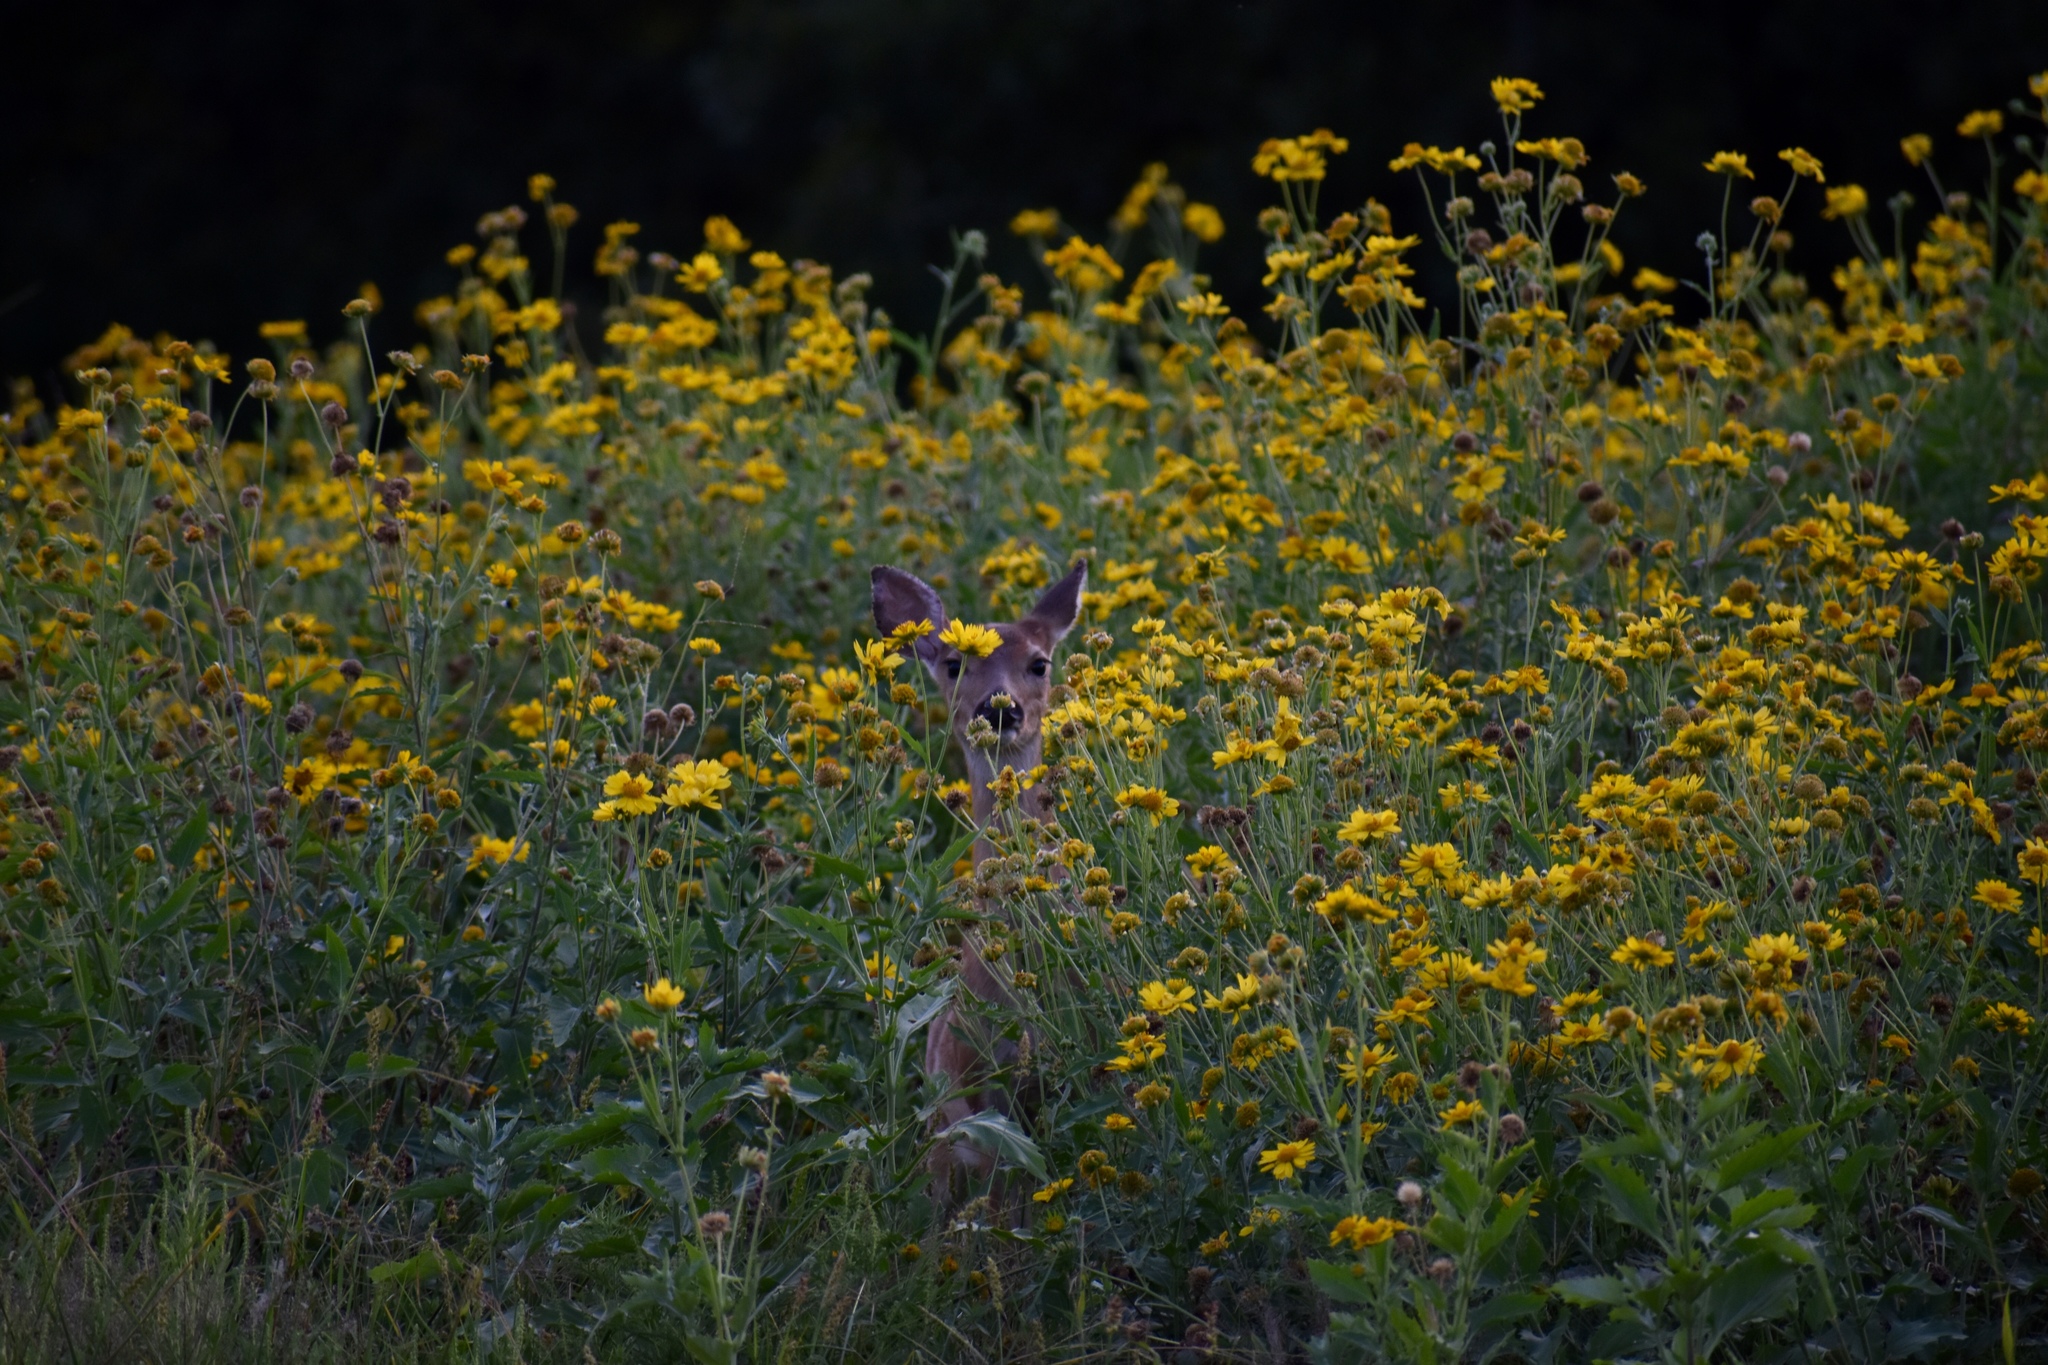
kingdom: Animalia
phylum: Chordata
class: Mammalia
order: Artiodactyla
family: Cervidae
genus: Odocoileus
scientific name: Odocoileus virginianus
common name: White-tailed deer
